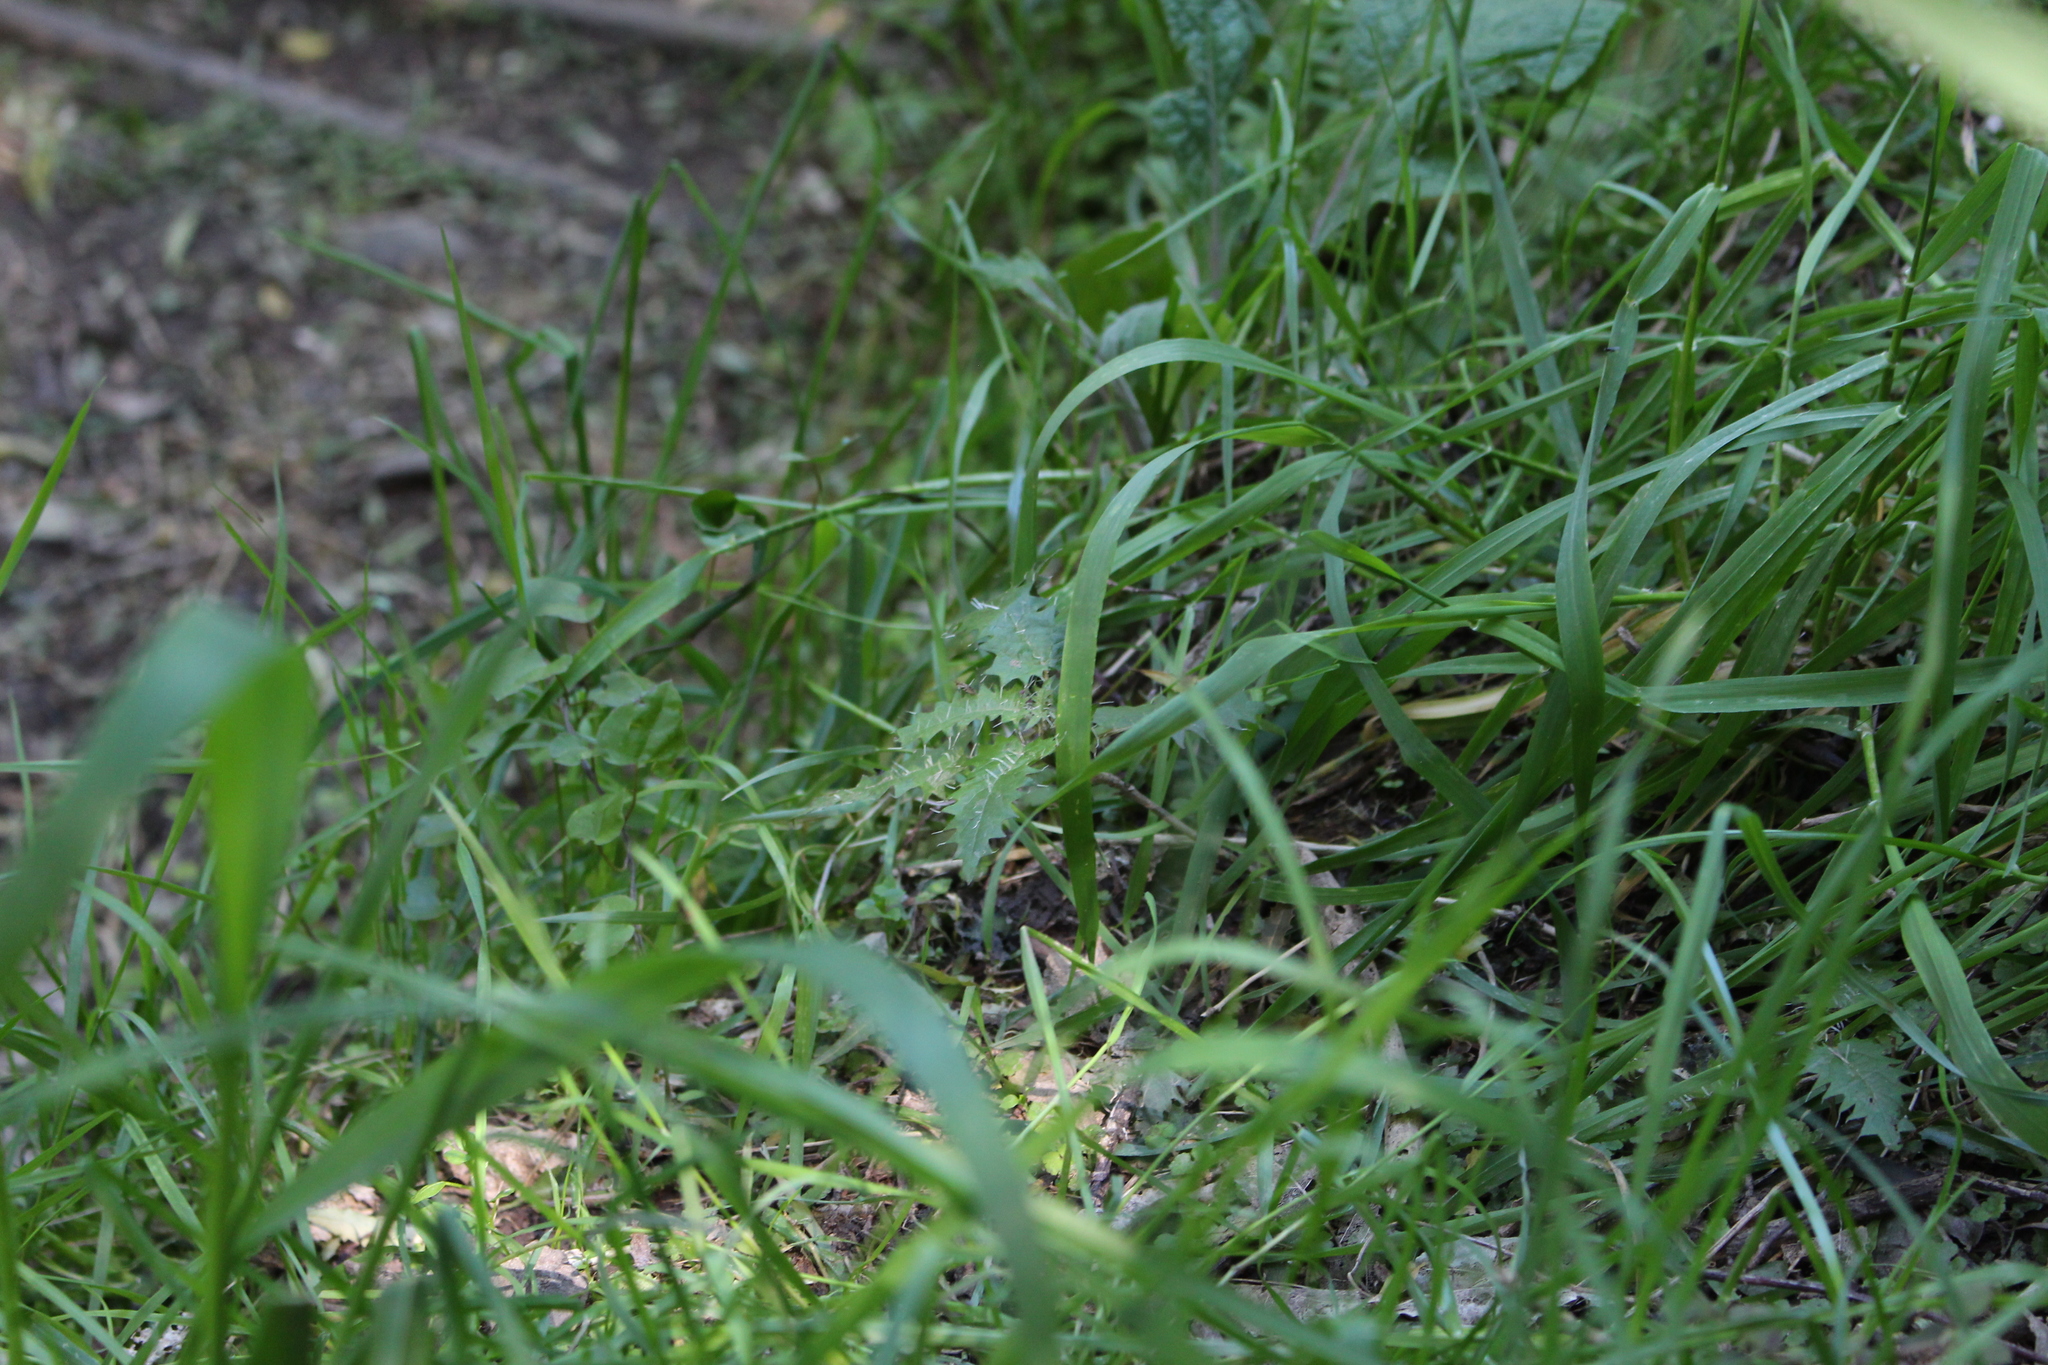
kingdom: Plantae
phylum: Tracheophyta
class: Magnoliopsida
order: Rosales
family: Urticaceae
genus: Urtica
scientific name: Urtica ferox
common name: Tree nettle
